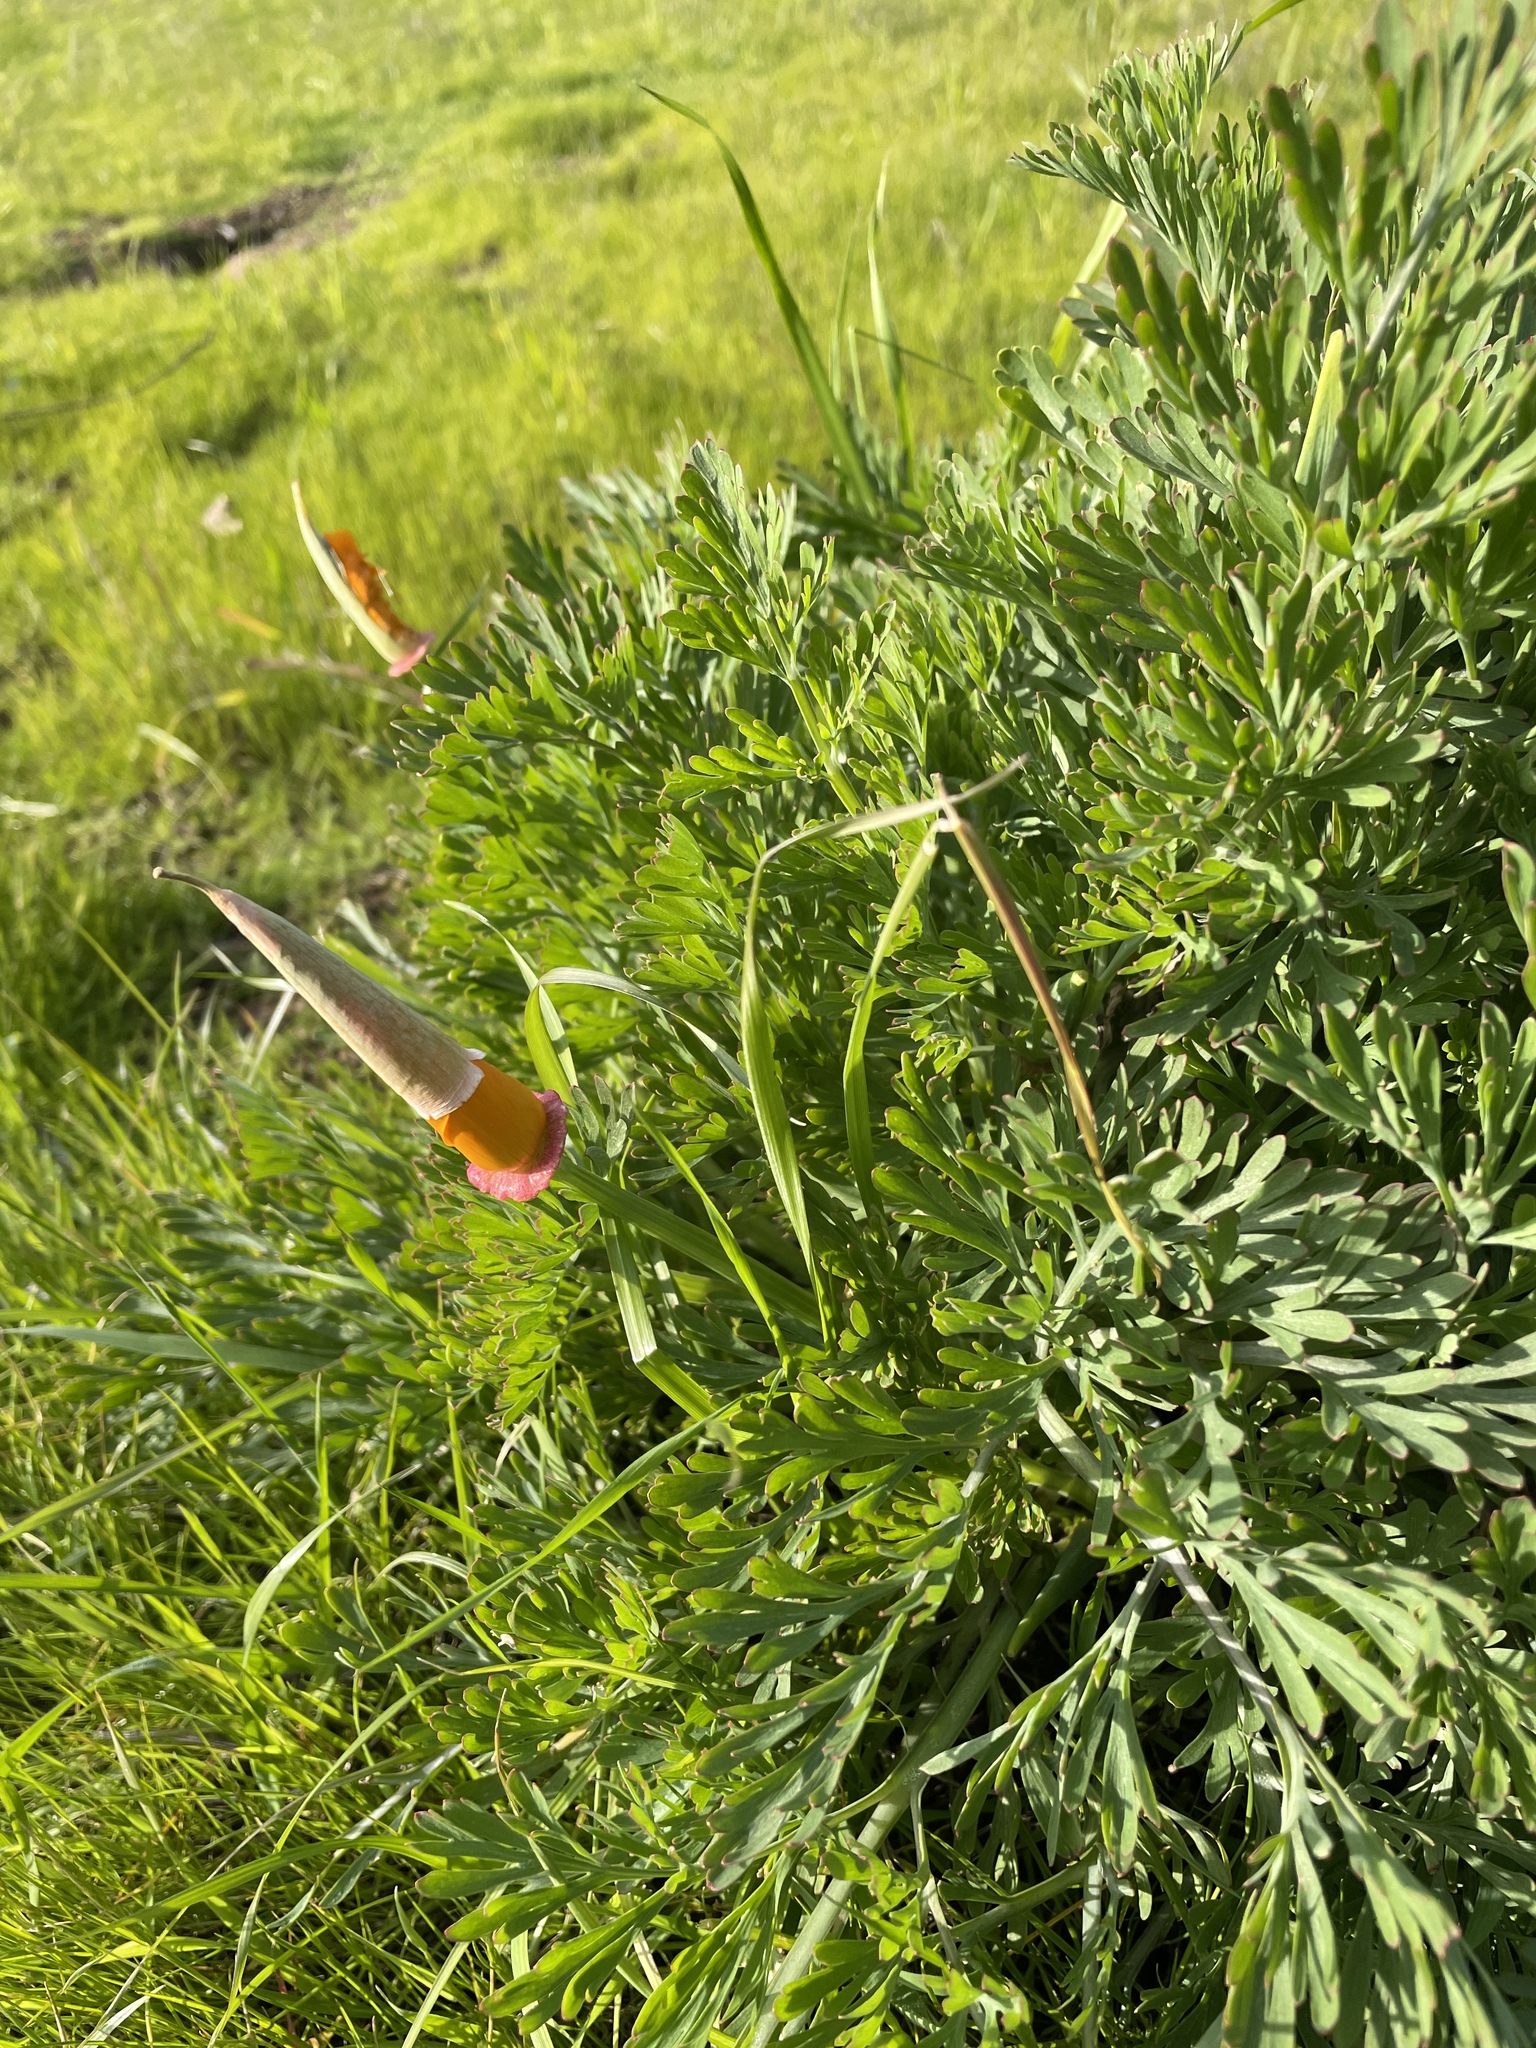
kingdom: Plantae
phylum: Tracheophyta
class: Magnoliopsida
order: Ranunculales
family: Papaveraceae
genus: Eschscholzia
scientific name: Eschscholzia californica
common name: California poppy
